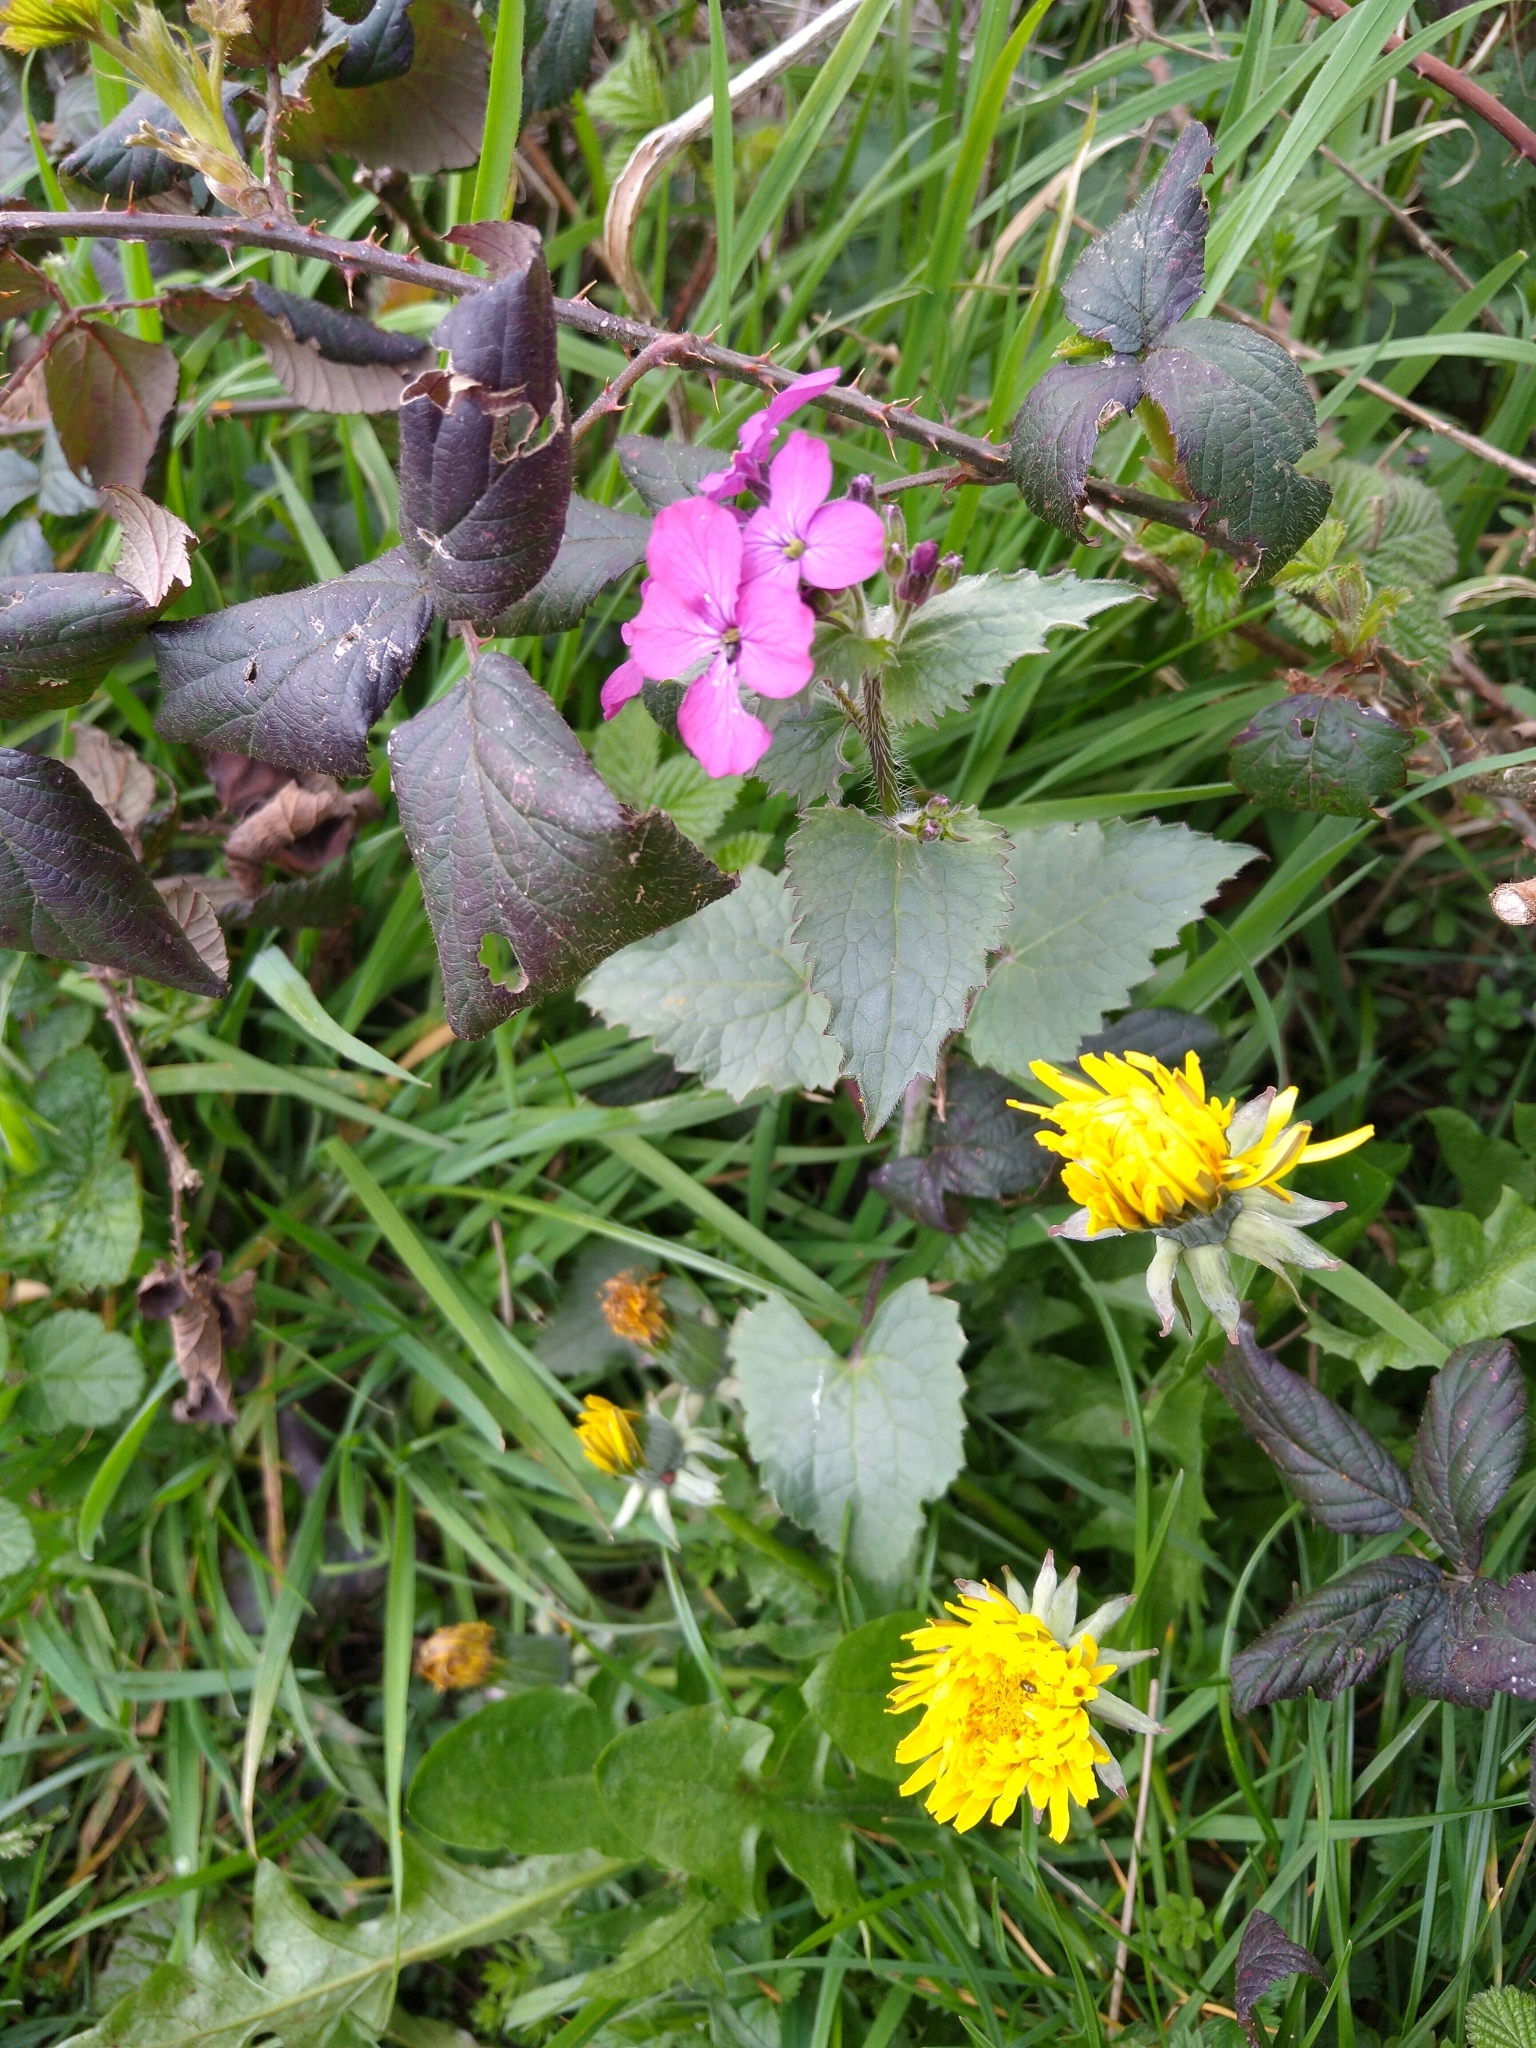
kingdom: Plantae
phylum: Tracheophyta
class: Magnoliopsida
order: Brassicales
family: Brassicaceae
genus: Lunaria
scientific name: Lunaria annua
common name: Honesty
